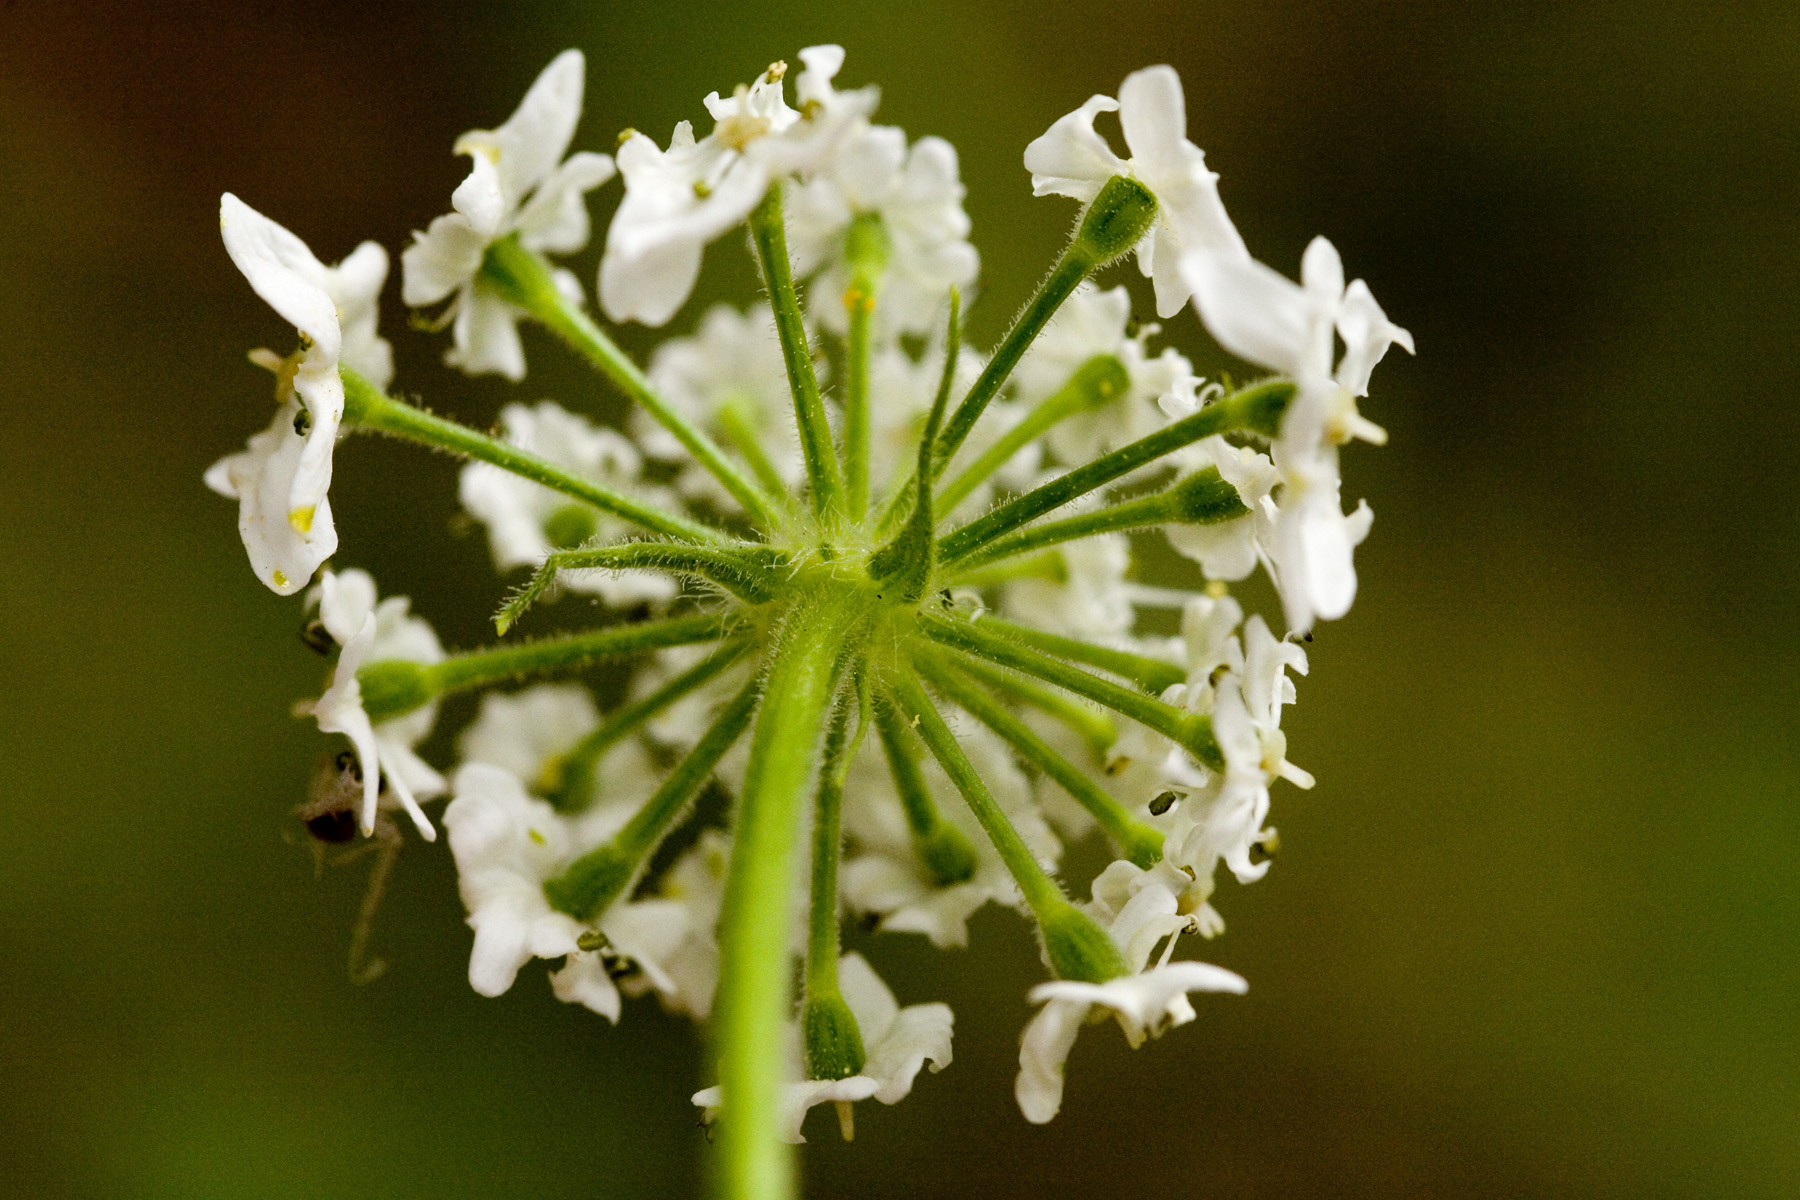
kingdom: Plantae
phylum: Tracheophyta
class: Magnoliopsida
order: Apiales
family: Apiaceae
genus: Heracleum
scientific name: Heracleum maximum
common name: American cow parsnip
